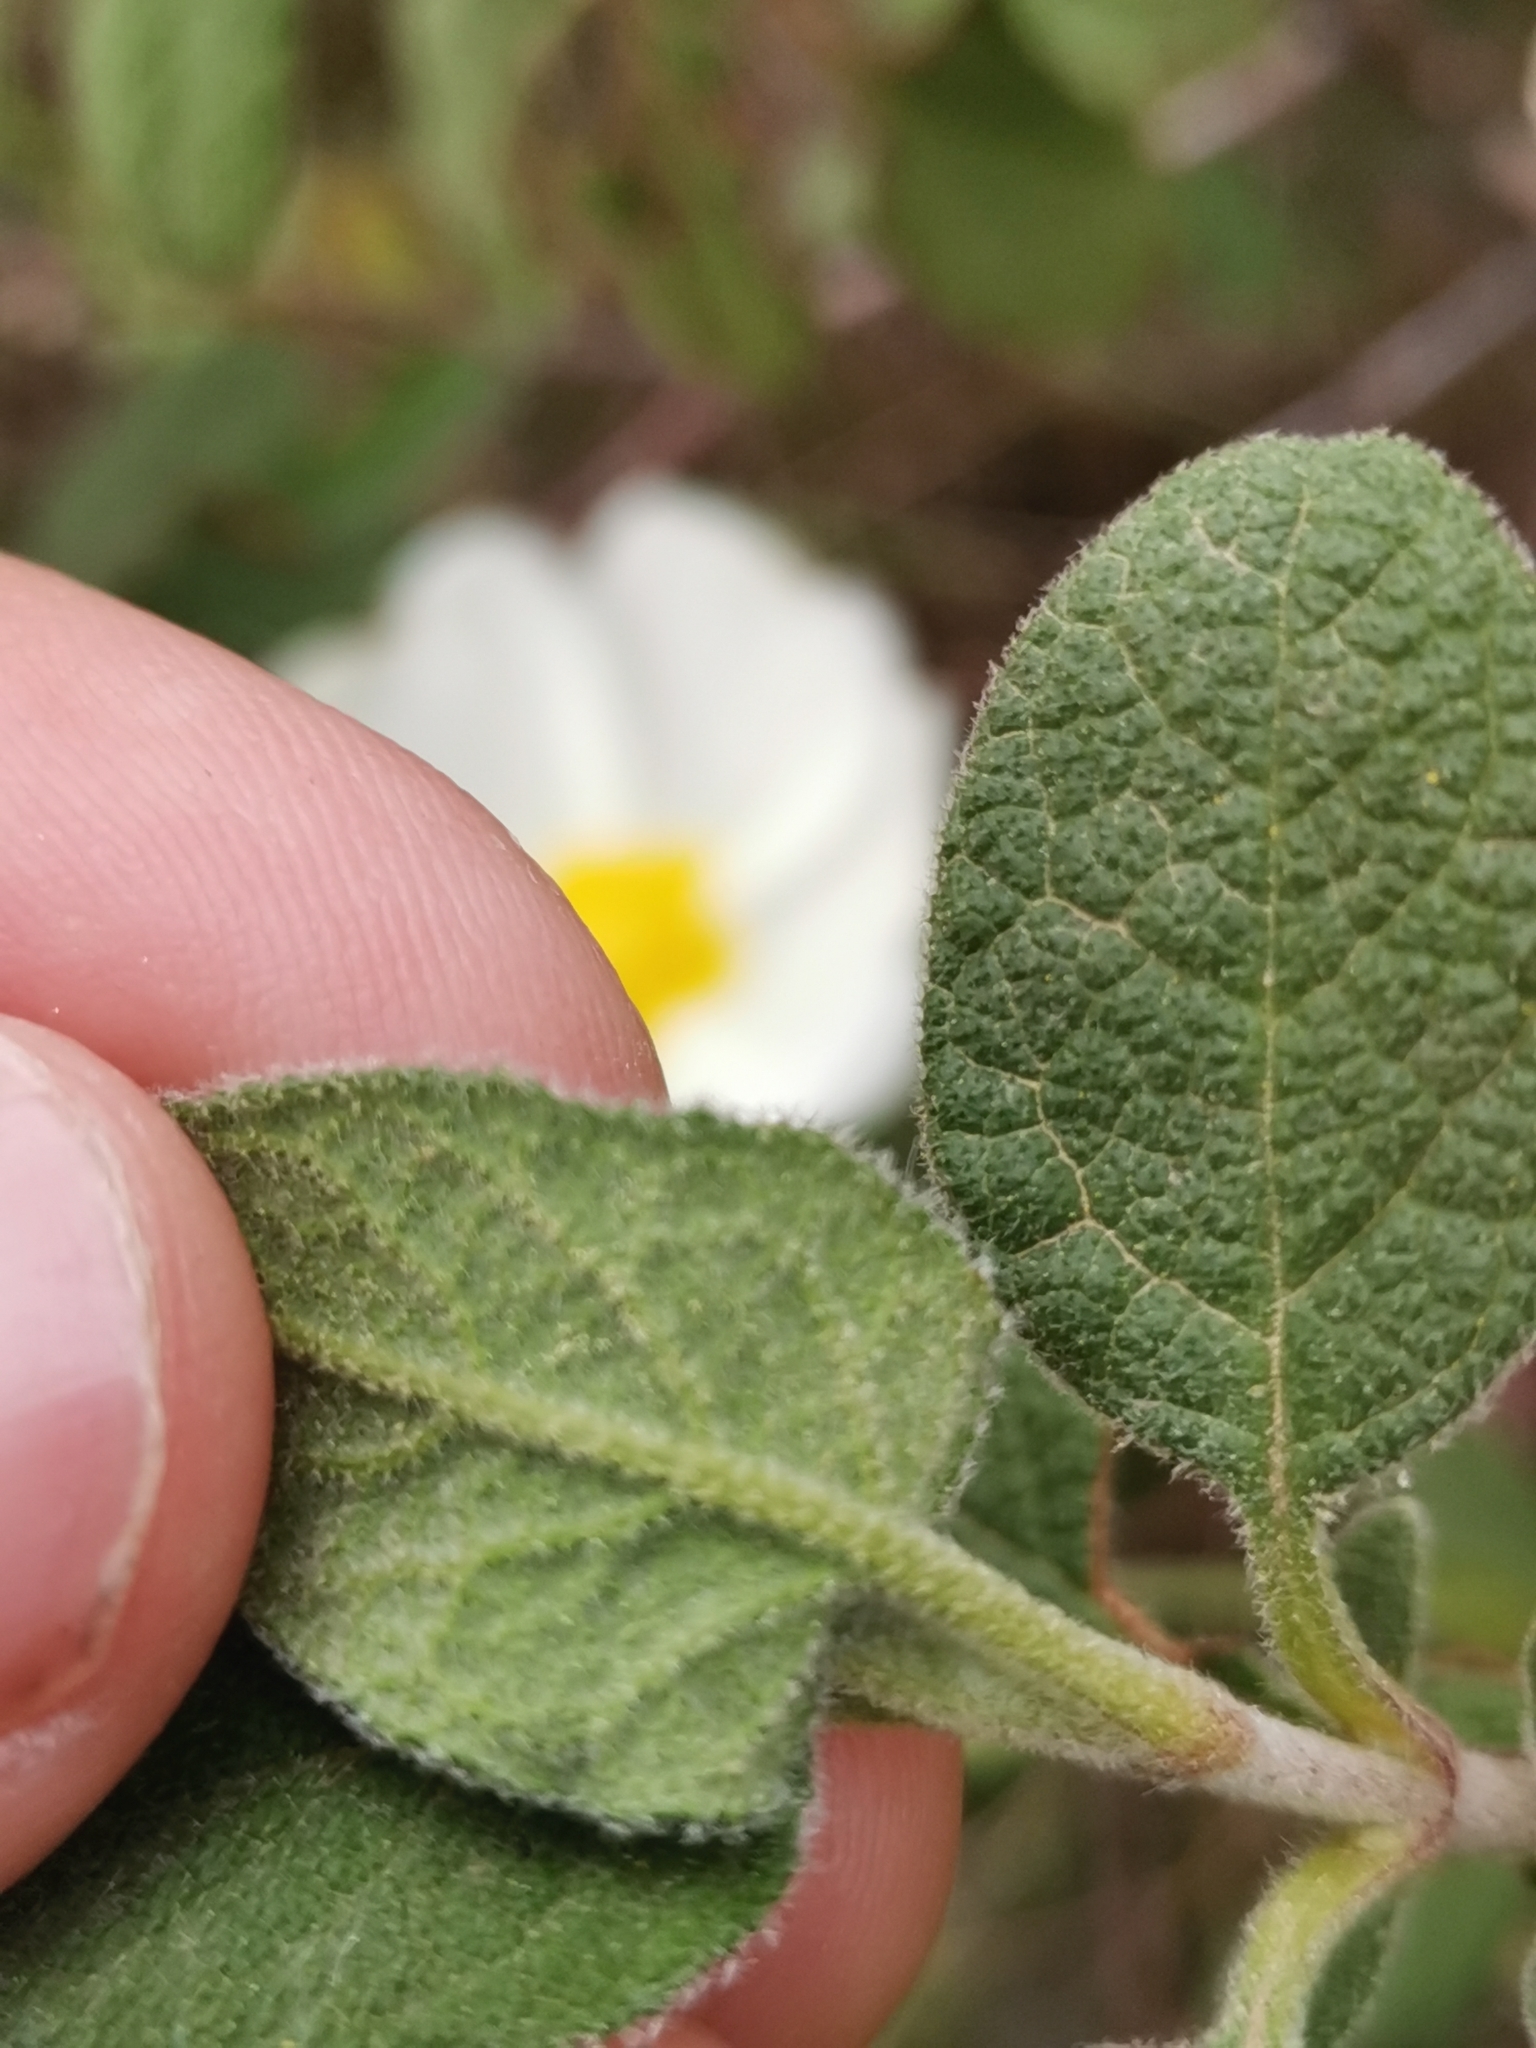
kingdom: Plantae
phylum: Tracheophyta
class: Magnoliopsida
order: Malvales
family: Cistaceae
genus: Cistus
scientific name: Cistus salviifolius
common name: Salvia cistus
